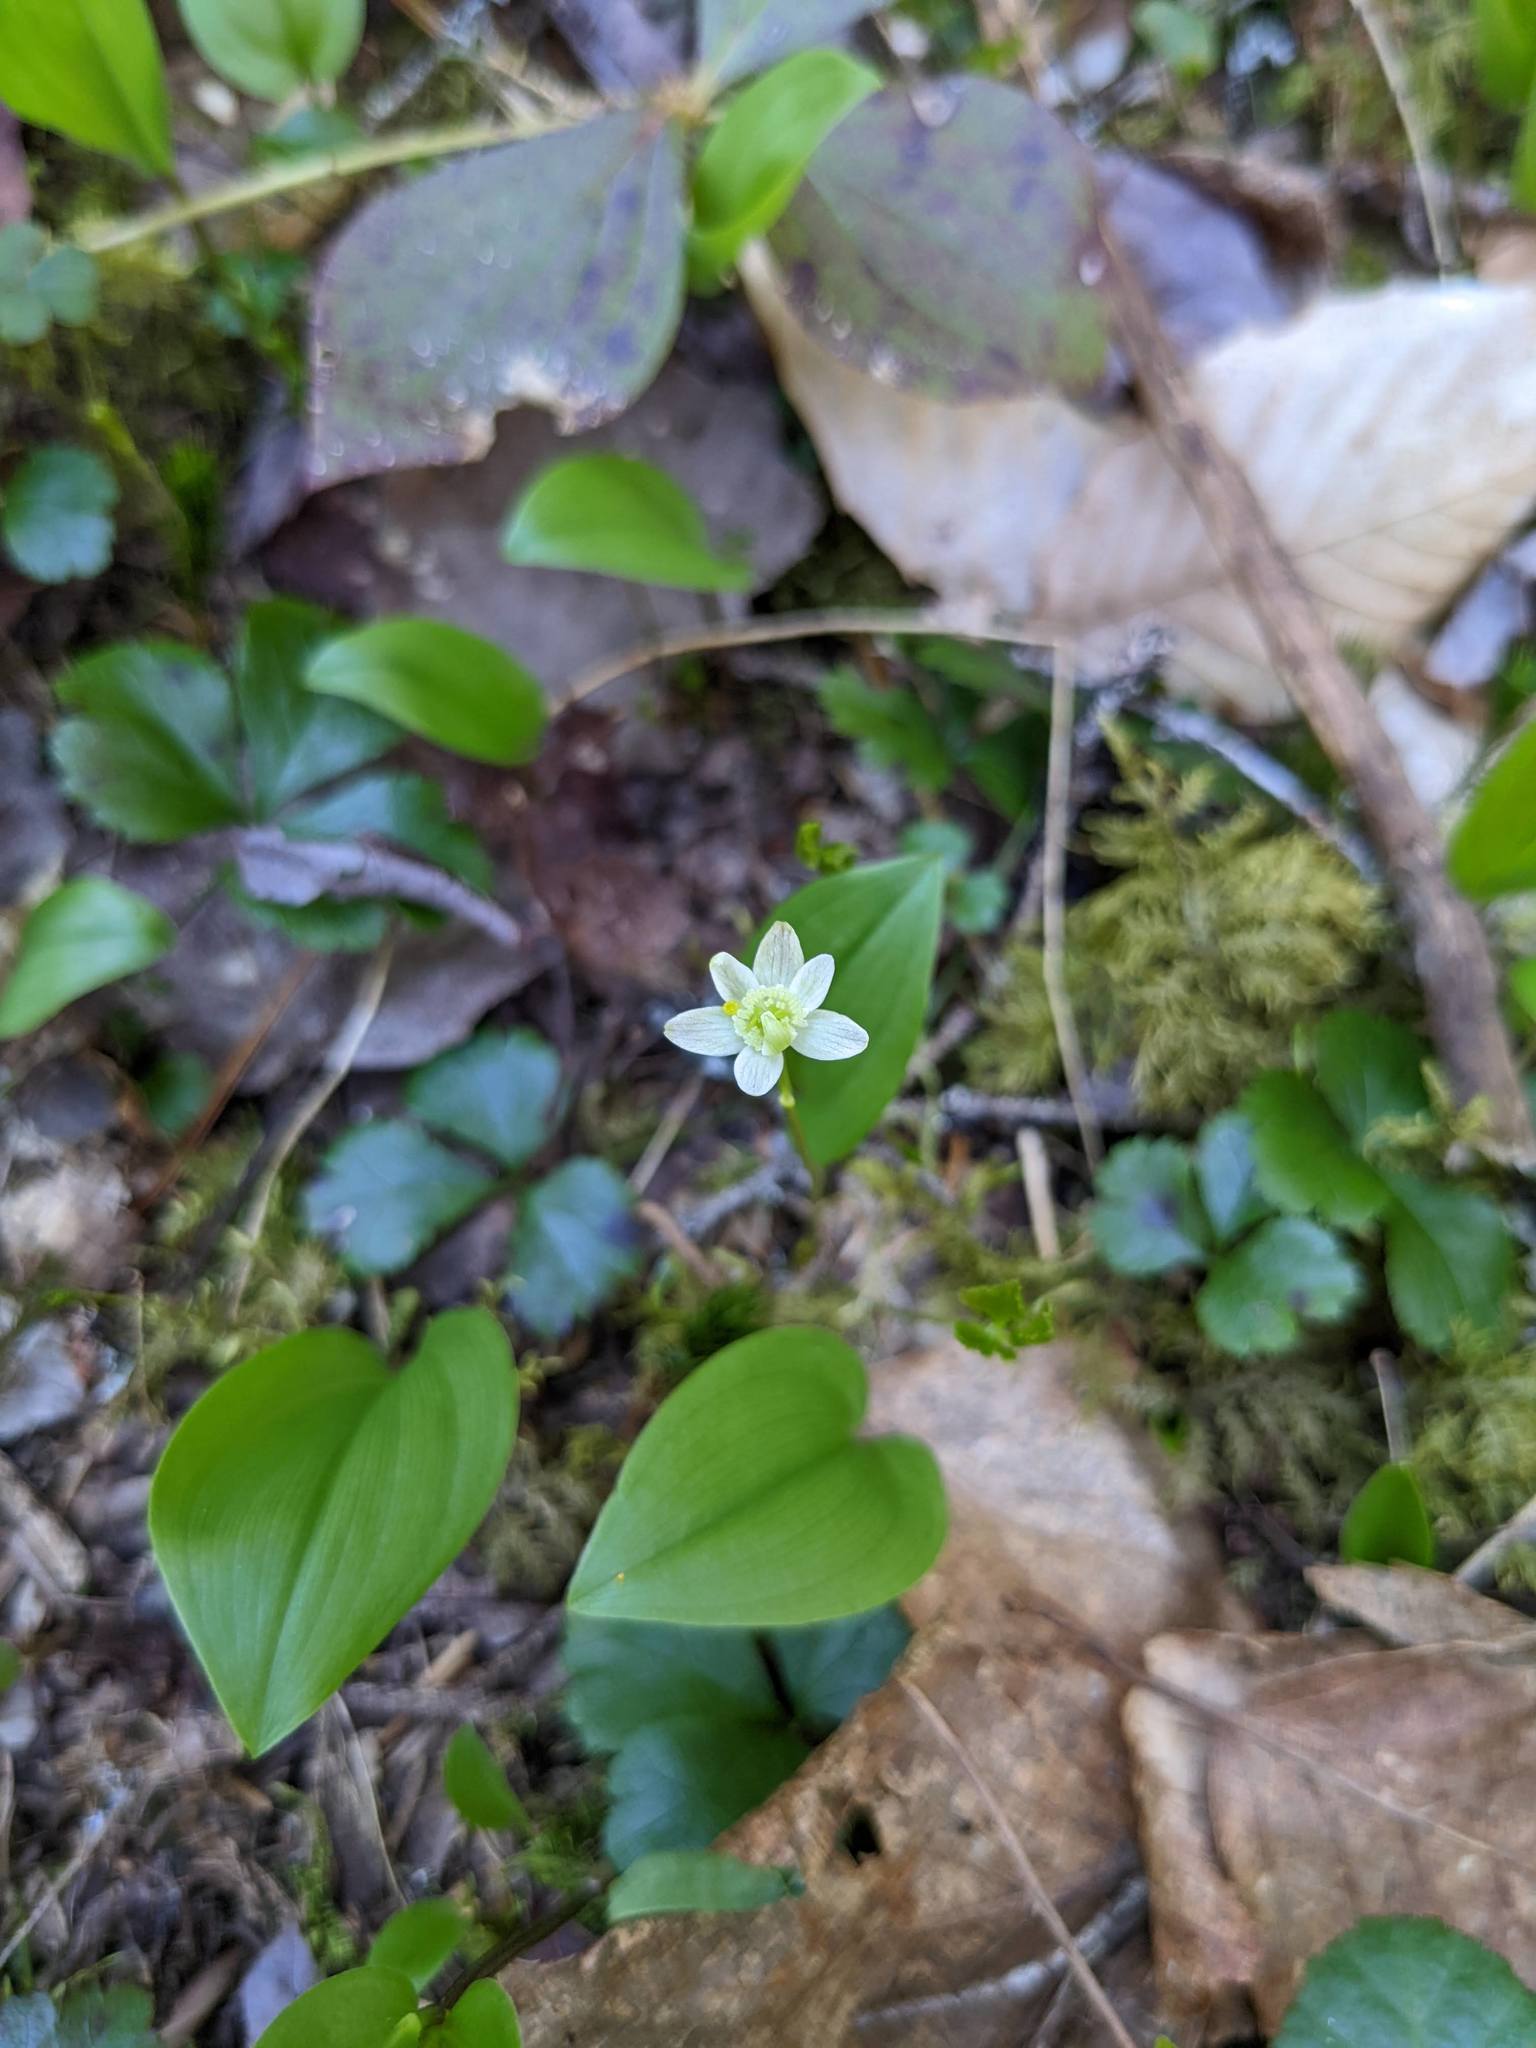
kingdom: Plantae
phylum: Tracheophyta
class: Magnoliopsida
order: Ranunculales
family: Ranunculaceae
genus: Coptis
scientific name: Coptis trifolia
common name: Canker-root
